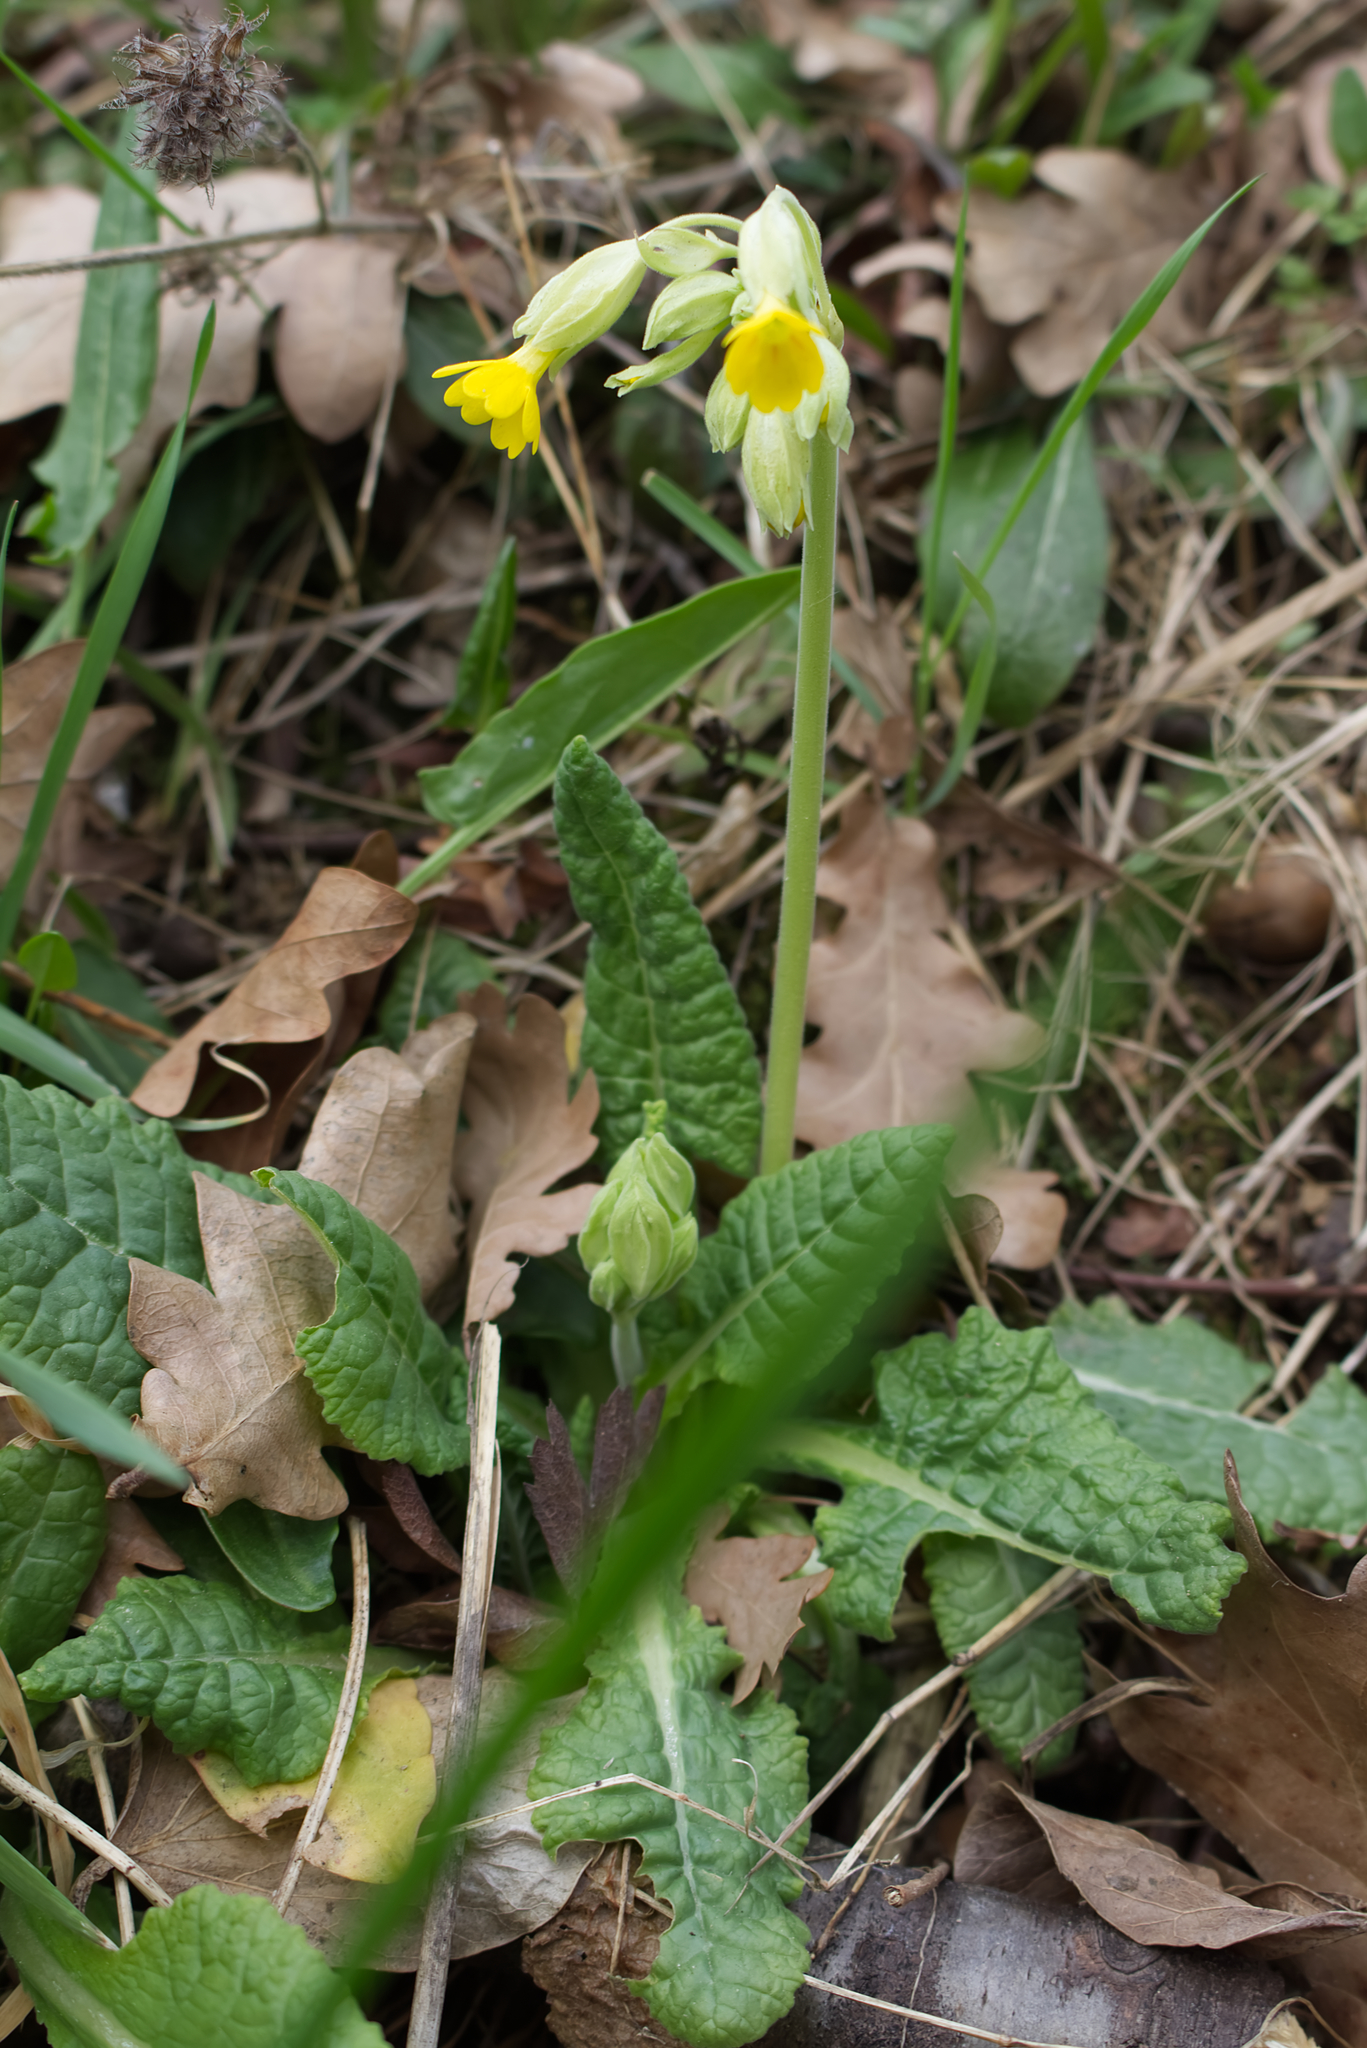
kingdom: Plantae
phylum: Tracheophyta
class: Magnoliopsida
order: Ericales
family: Primulaceae
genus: Primula
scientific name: Primula veris
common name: Cowslip
